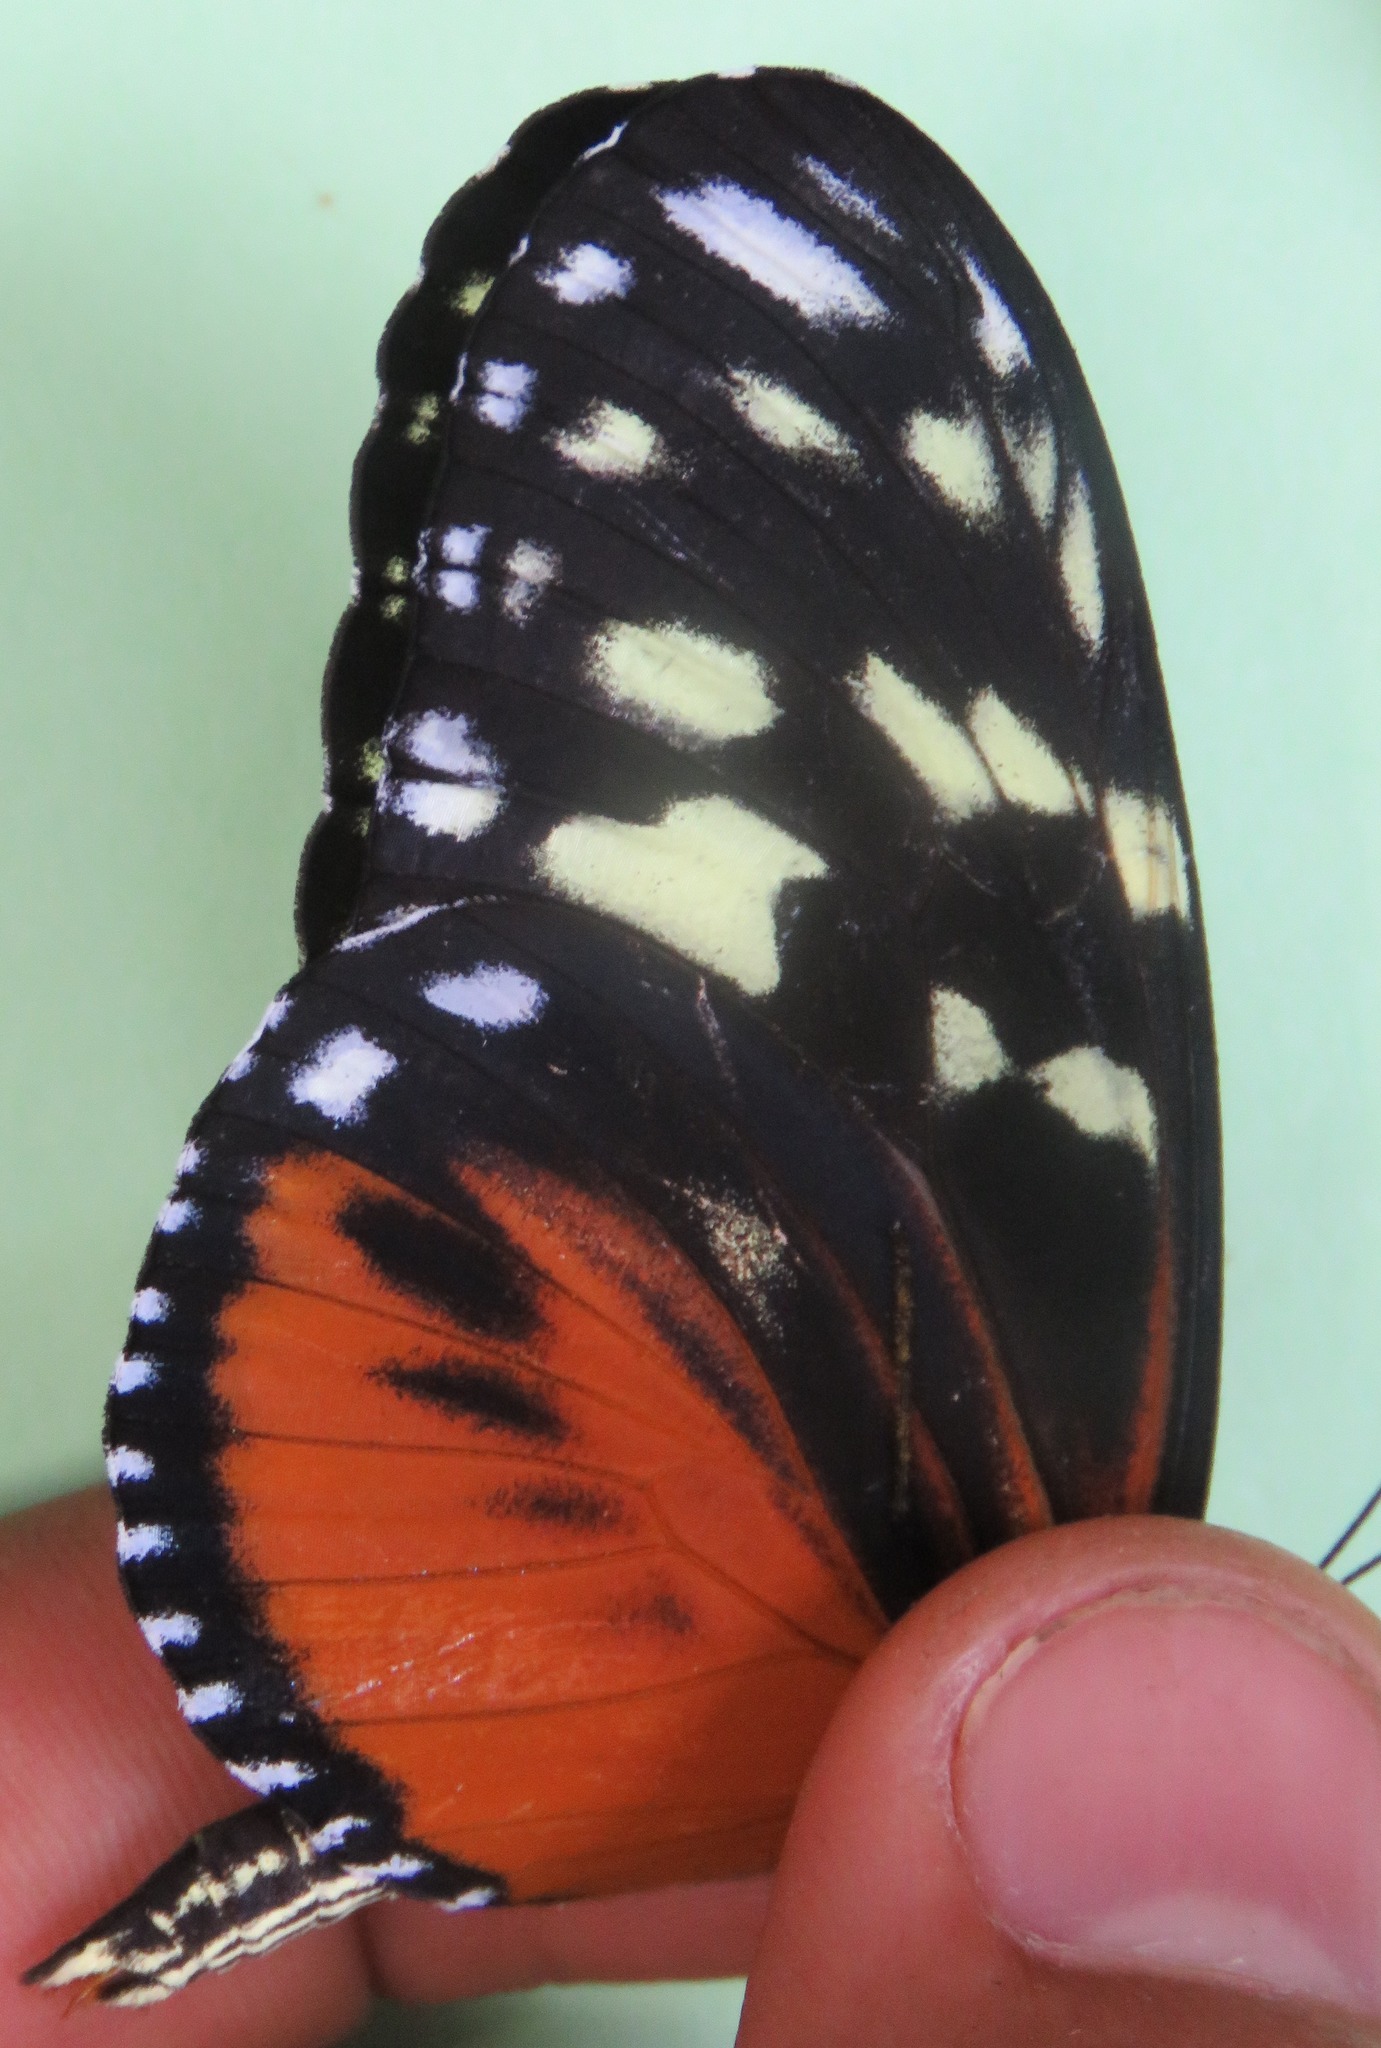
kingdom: Animalia
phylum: Arthropoda
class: Insecta
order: Lepidoptera
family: Nymphalidae
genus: Heliconius
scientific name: Heliconius hecale
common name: Tiger longwing
